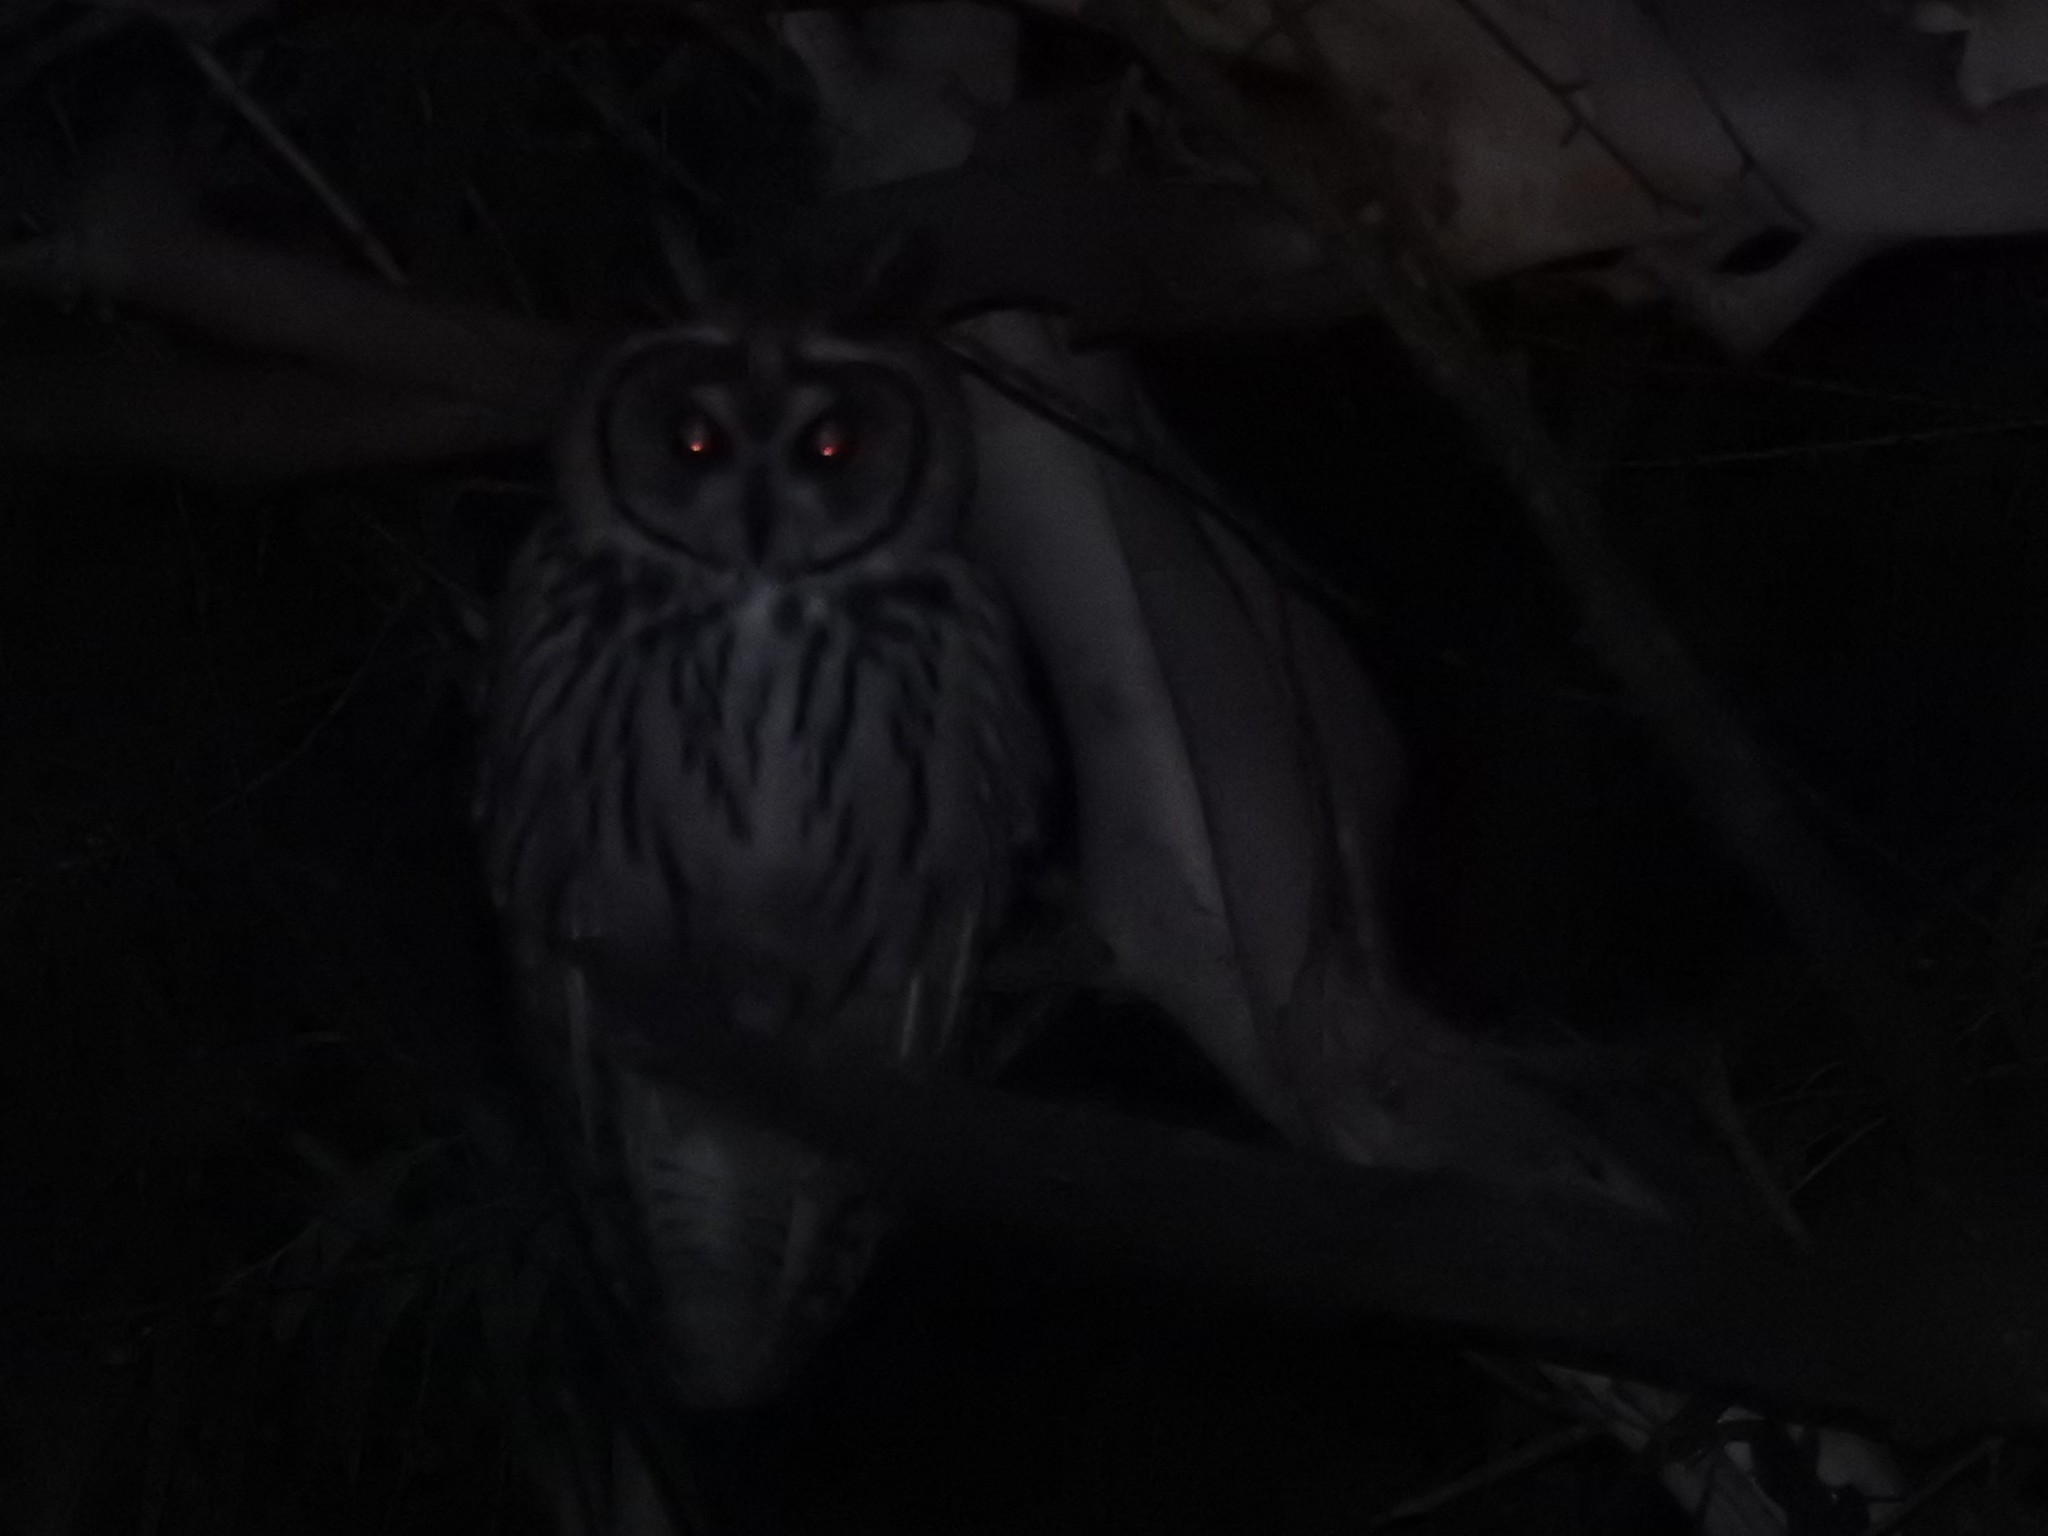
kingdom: Animalia
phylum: Chordata
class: Aves
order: Strigiformes
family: Strigidae
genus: Pseudoscops
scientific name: Pseudoscops clamator
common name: Striped owl
